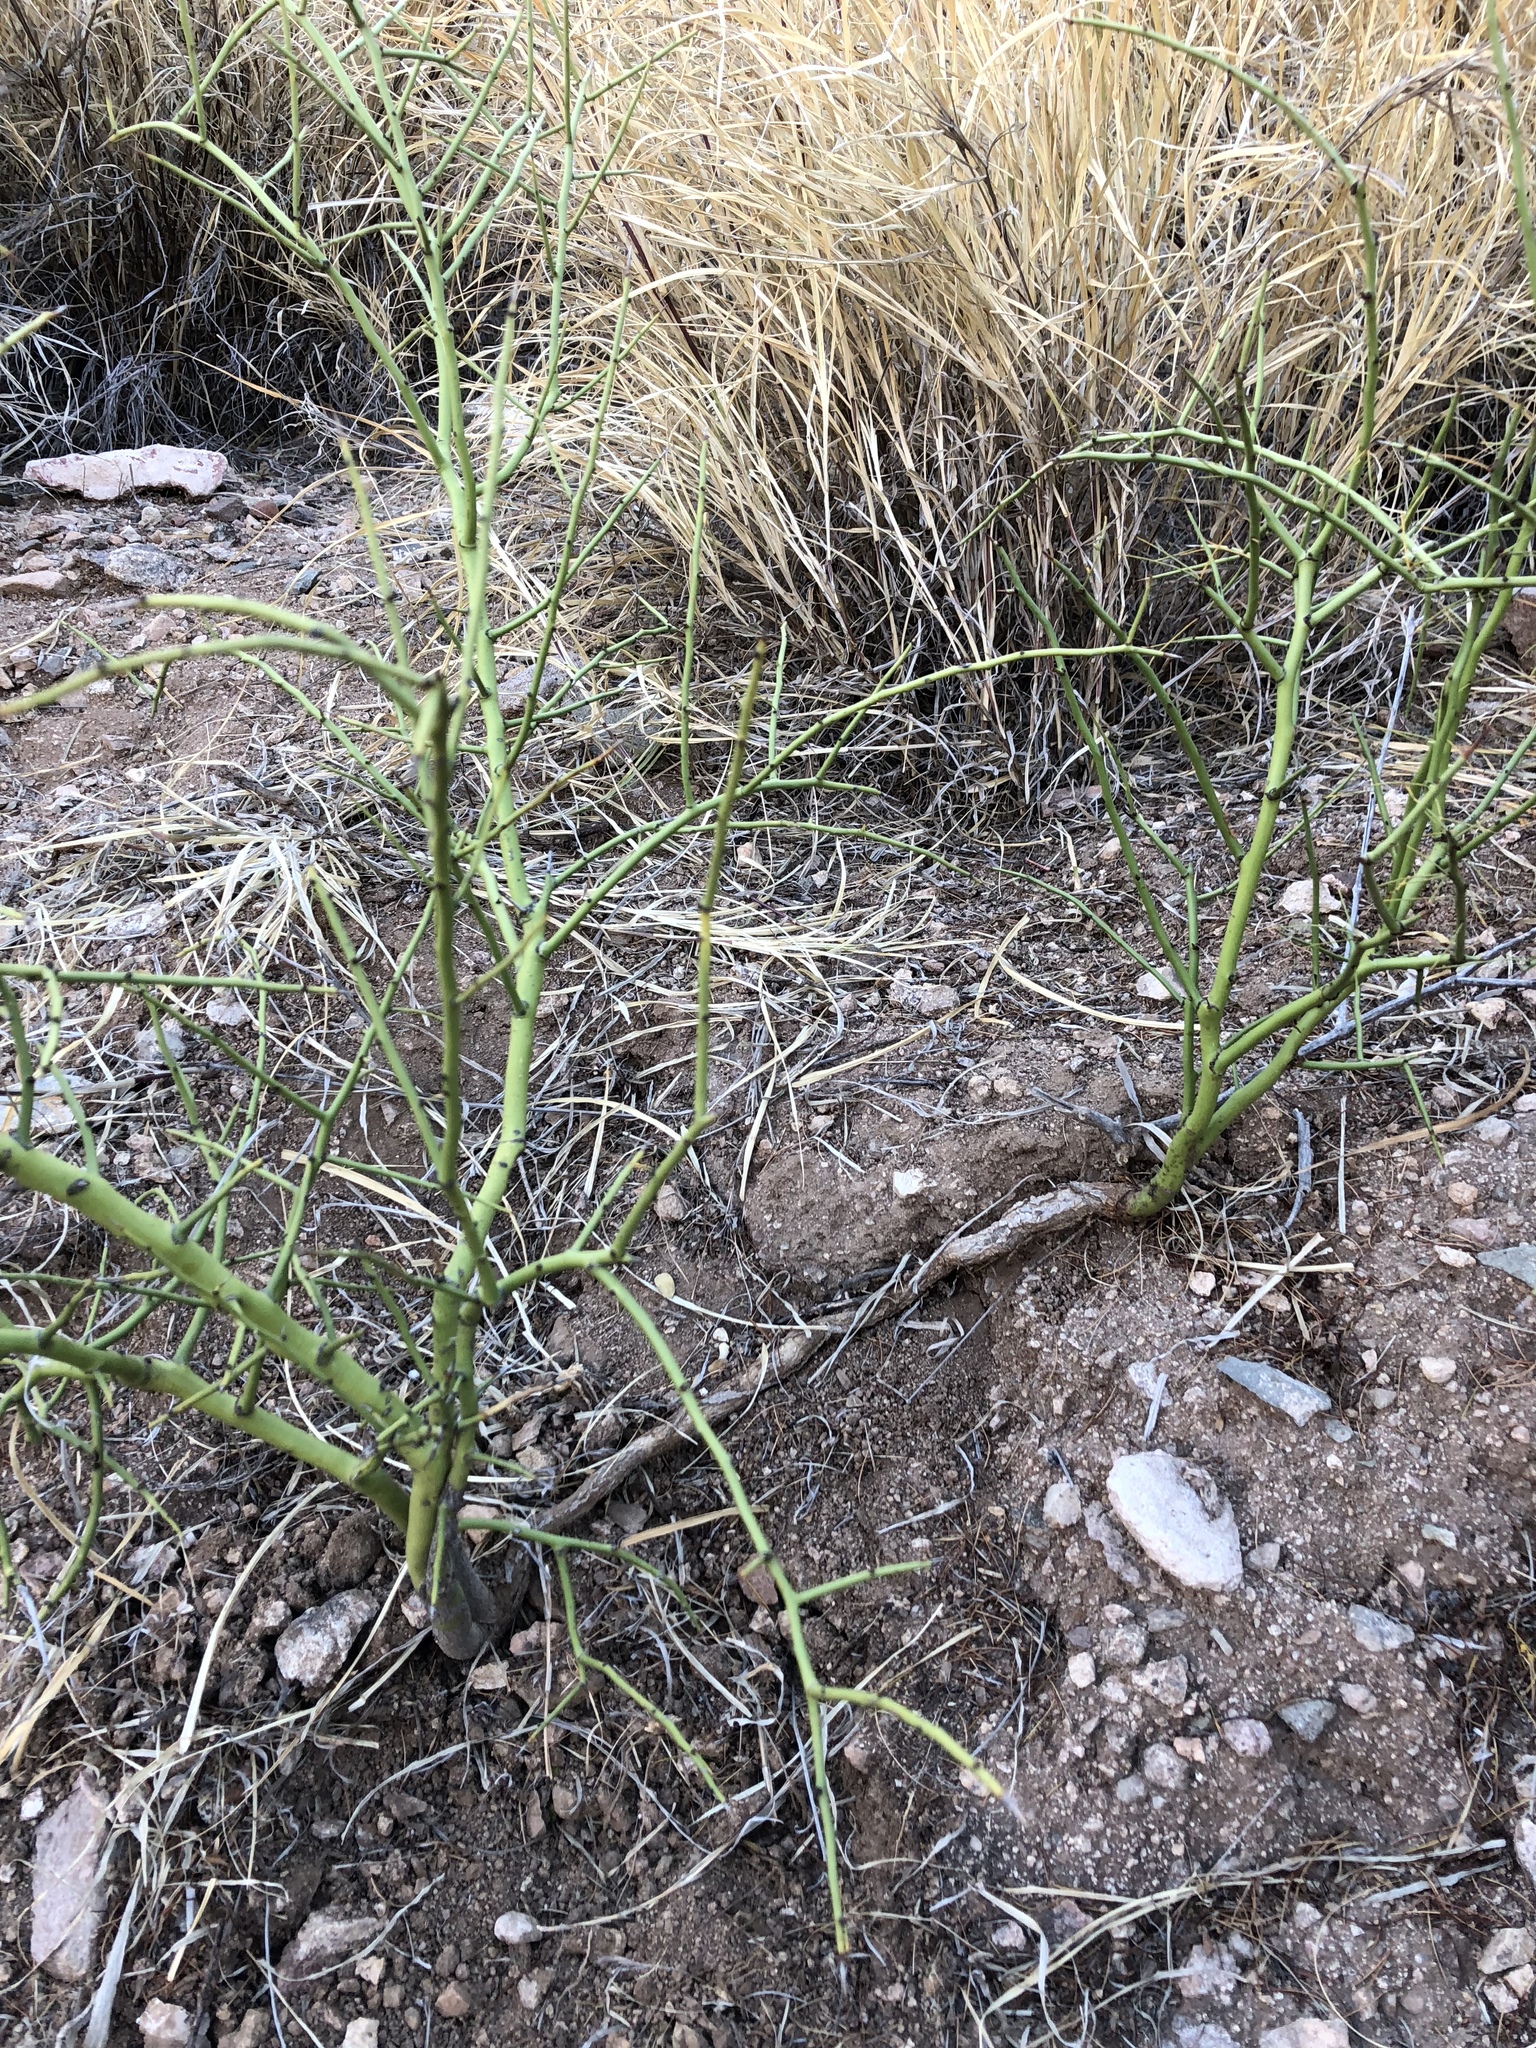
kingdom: Plantae
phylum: Tracheophyta
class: Magnoliopsida
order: Fabales
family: Fabaceae
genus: Parkinsonia
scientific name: Parkinsonia microphylla
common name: Yellow paloverde
